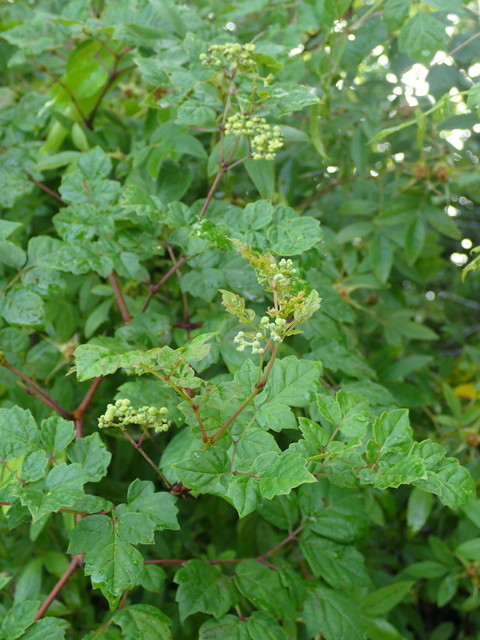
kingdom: Plantae
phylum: Tracheophyta
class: Magnoliopsida
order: Vitales
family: Vitaceae
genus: Nekemias
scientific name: Nekemias arborea
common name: Peppervine
